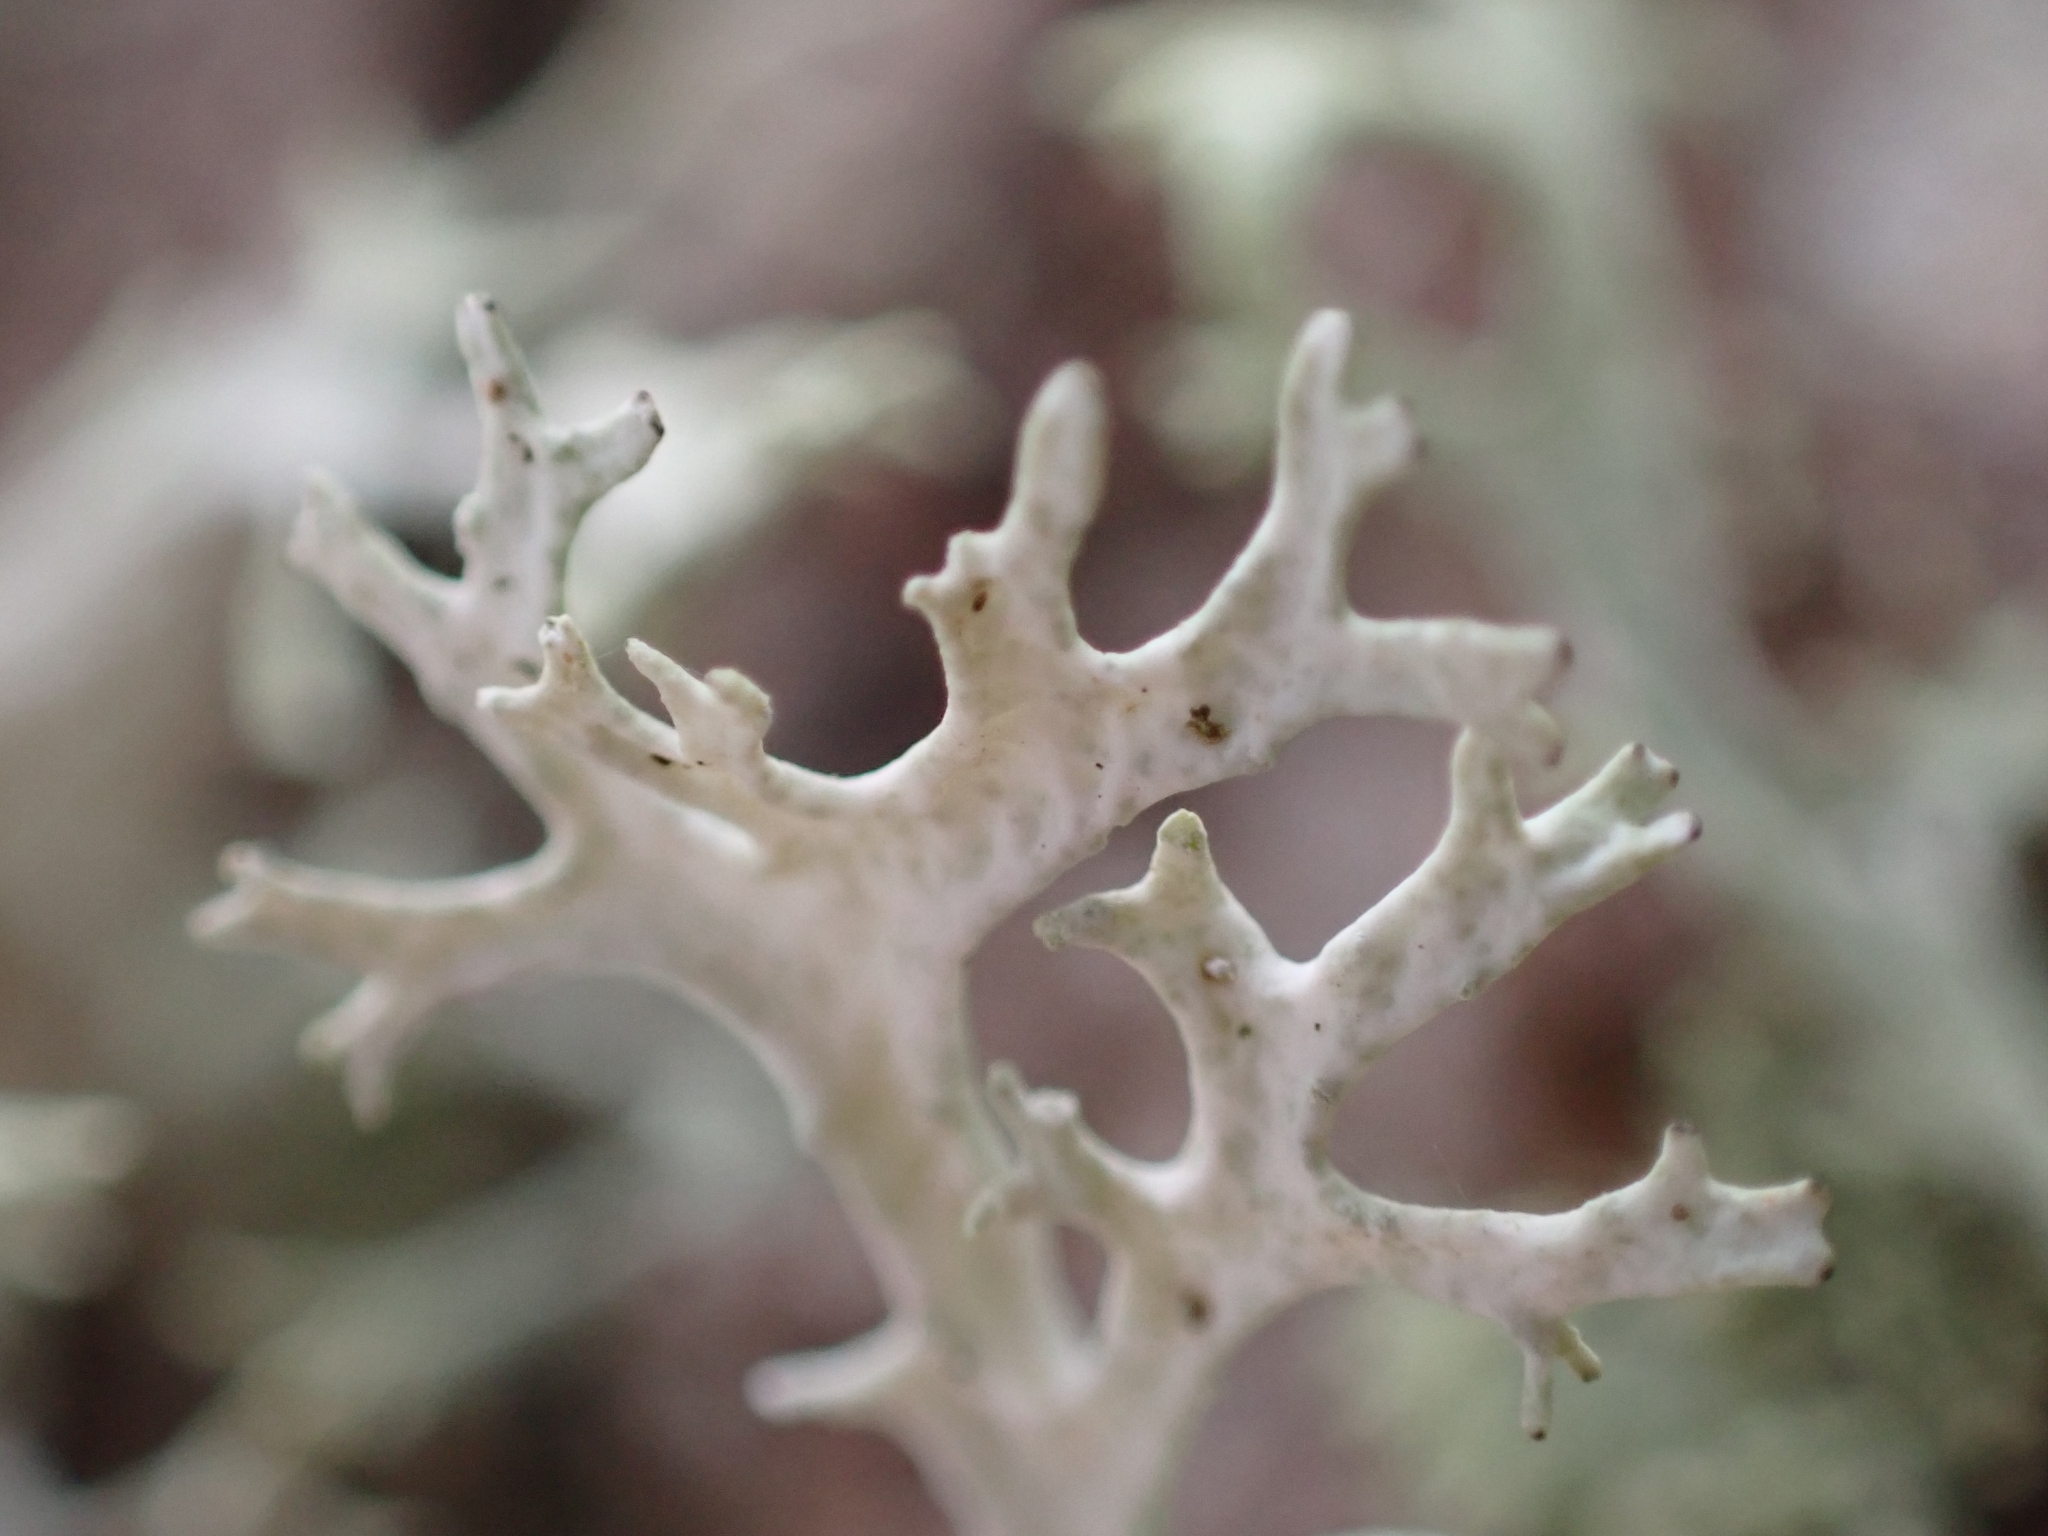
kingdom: Fungi
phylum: Ascomycota
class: Lecanoromycetes
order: Lecanorales
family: Parmeliaceae
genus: Evernia
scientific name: Evernia prunastri
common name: Oak moss
